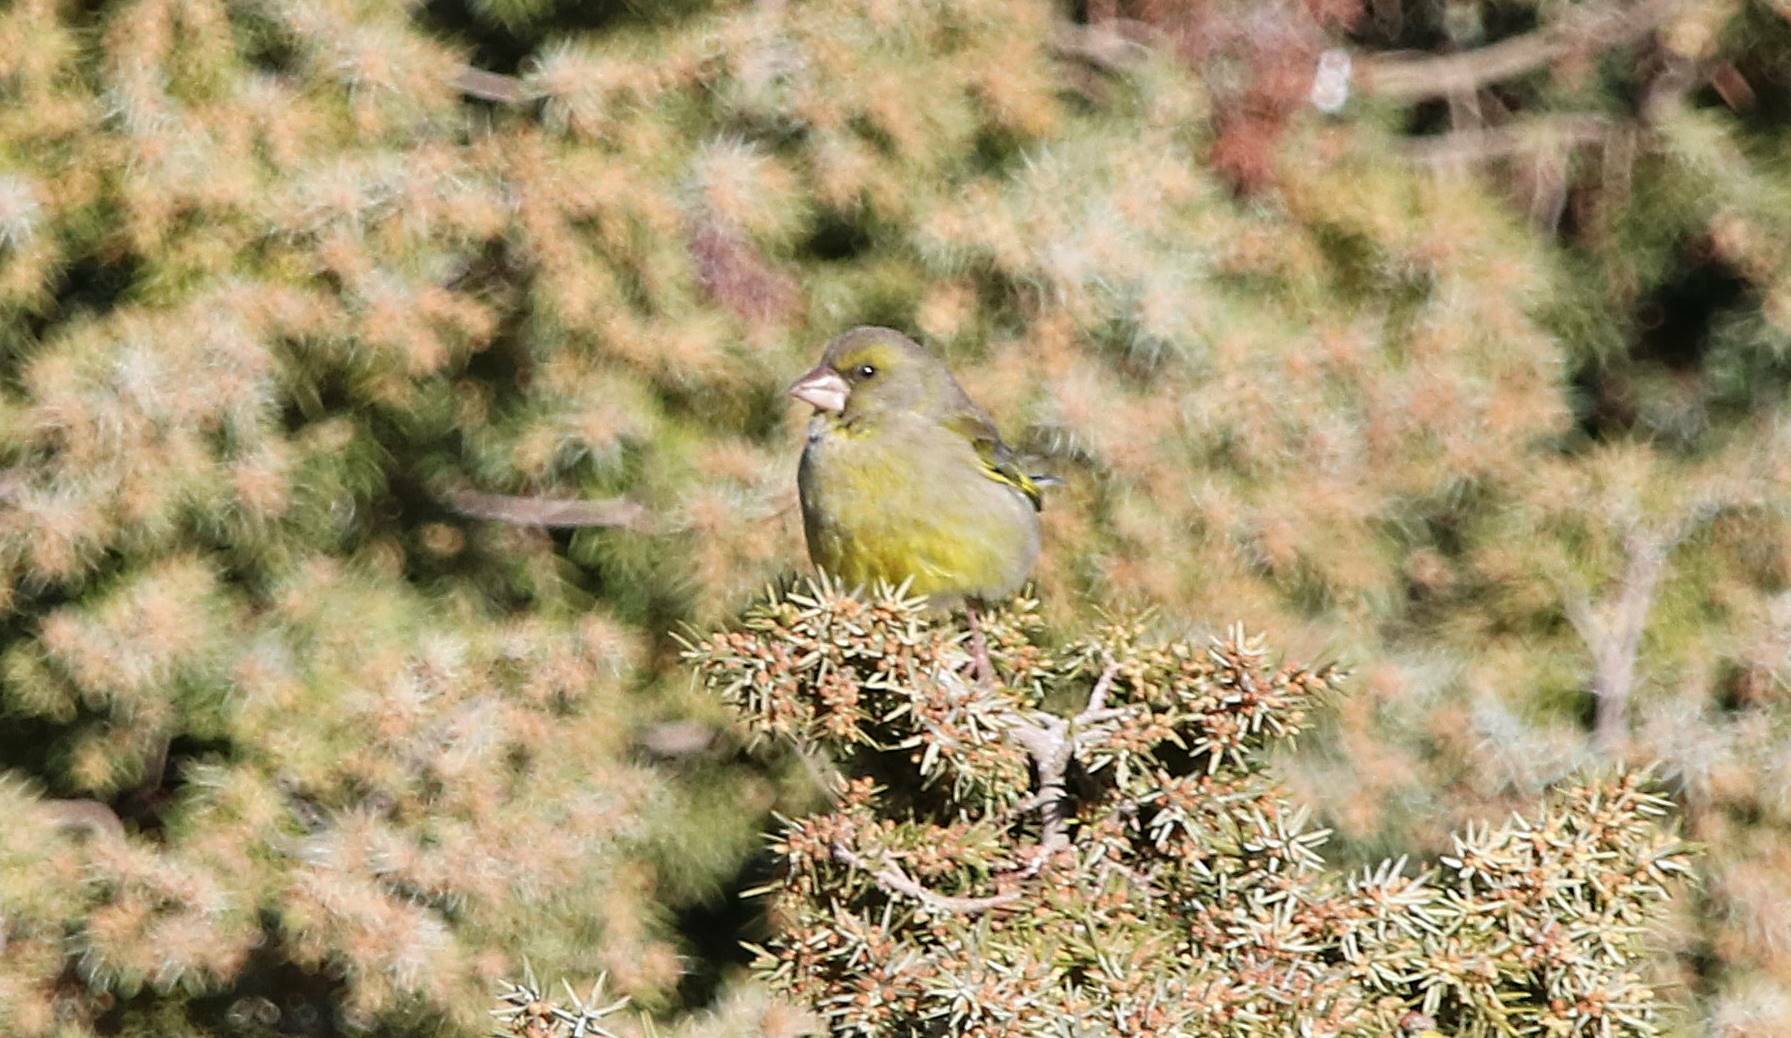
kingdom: Plantae
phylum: Tracheophyta
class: Liliopsida
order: Poales
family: Poaceae
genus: Chloris
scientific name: Chloris chloris
